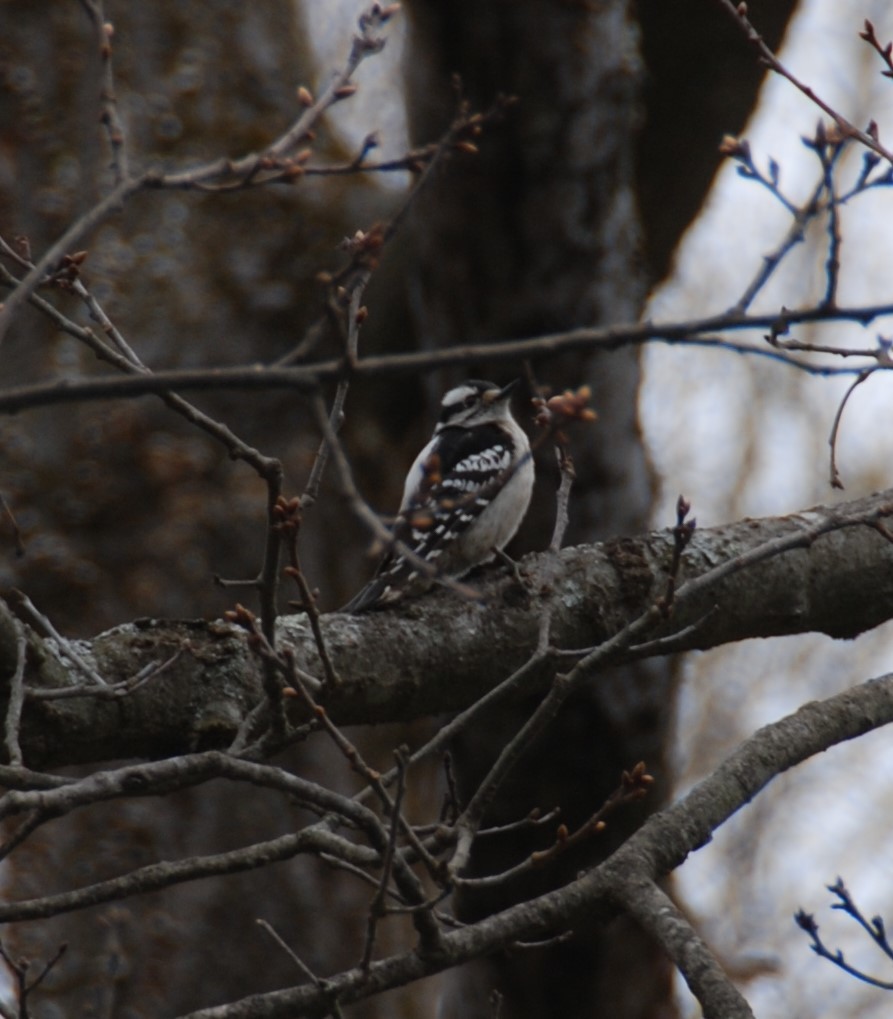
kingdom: Animalia
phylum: Chordata
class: Aves
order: Piciformes
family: Picidae
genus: Dryobates
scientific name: Dryobates pubescens
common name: Downy woodpecker
